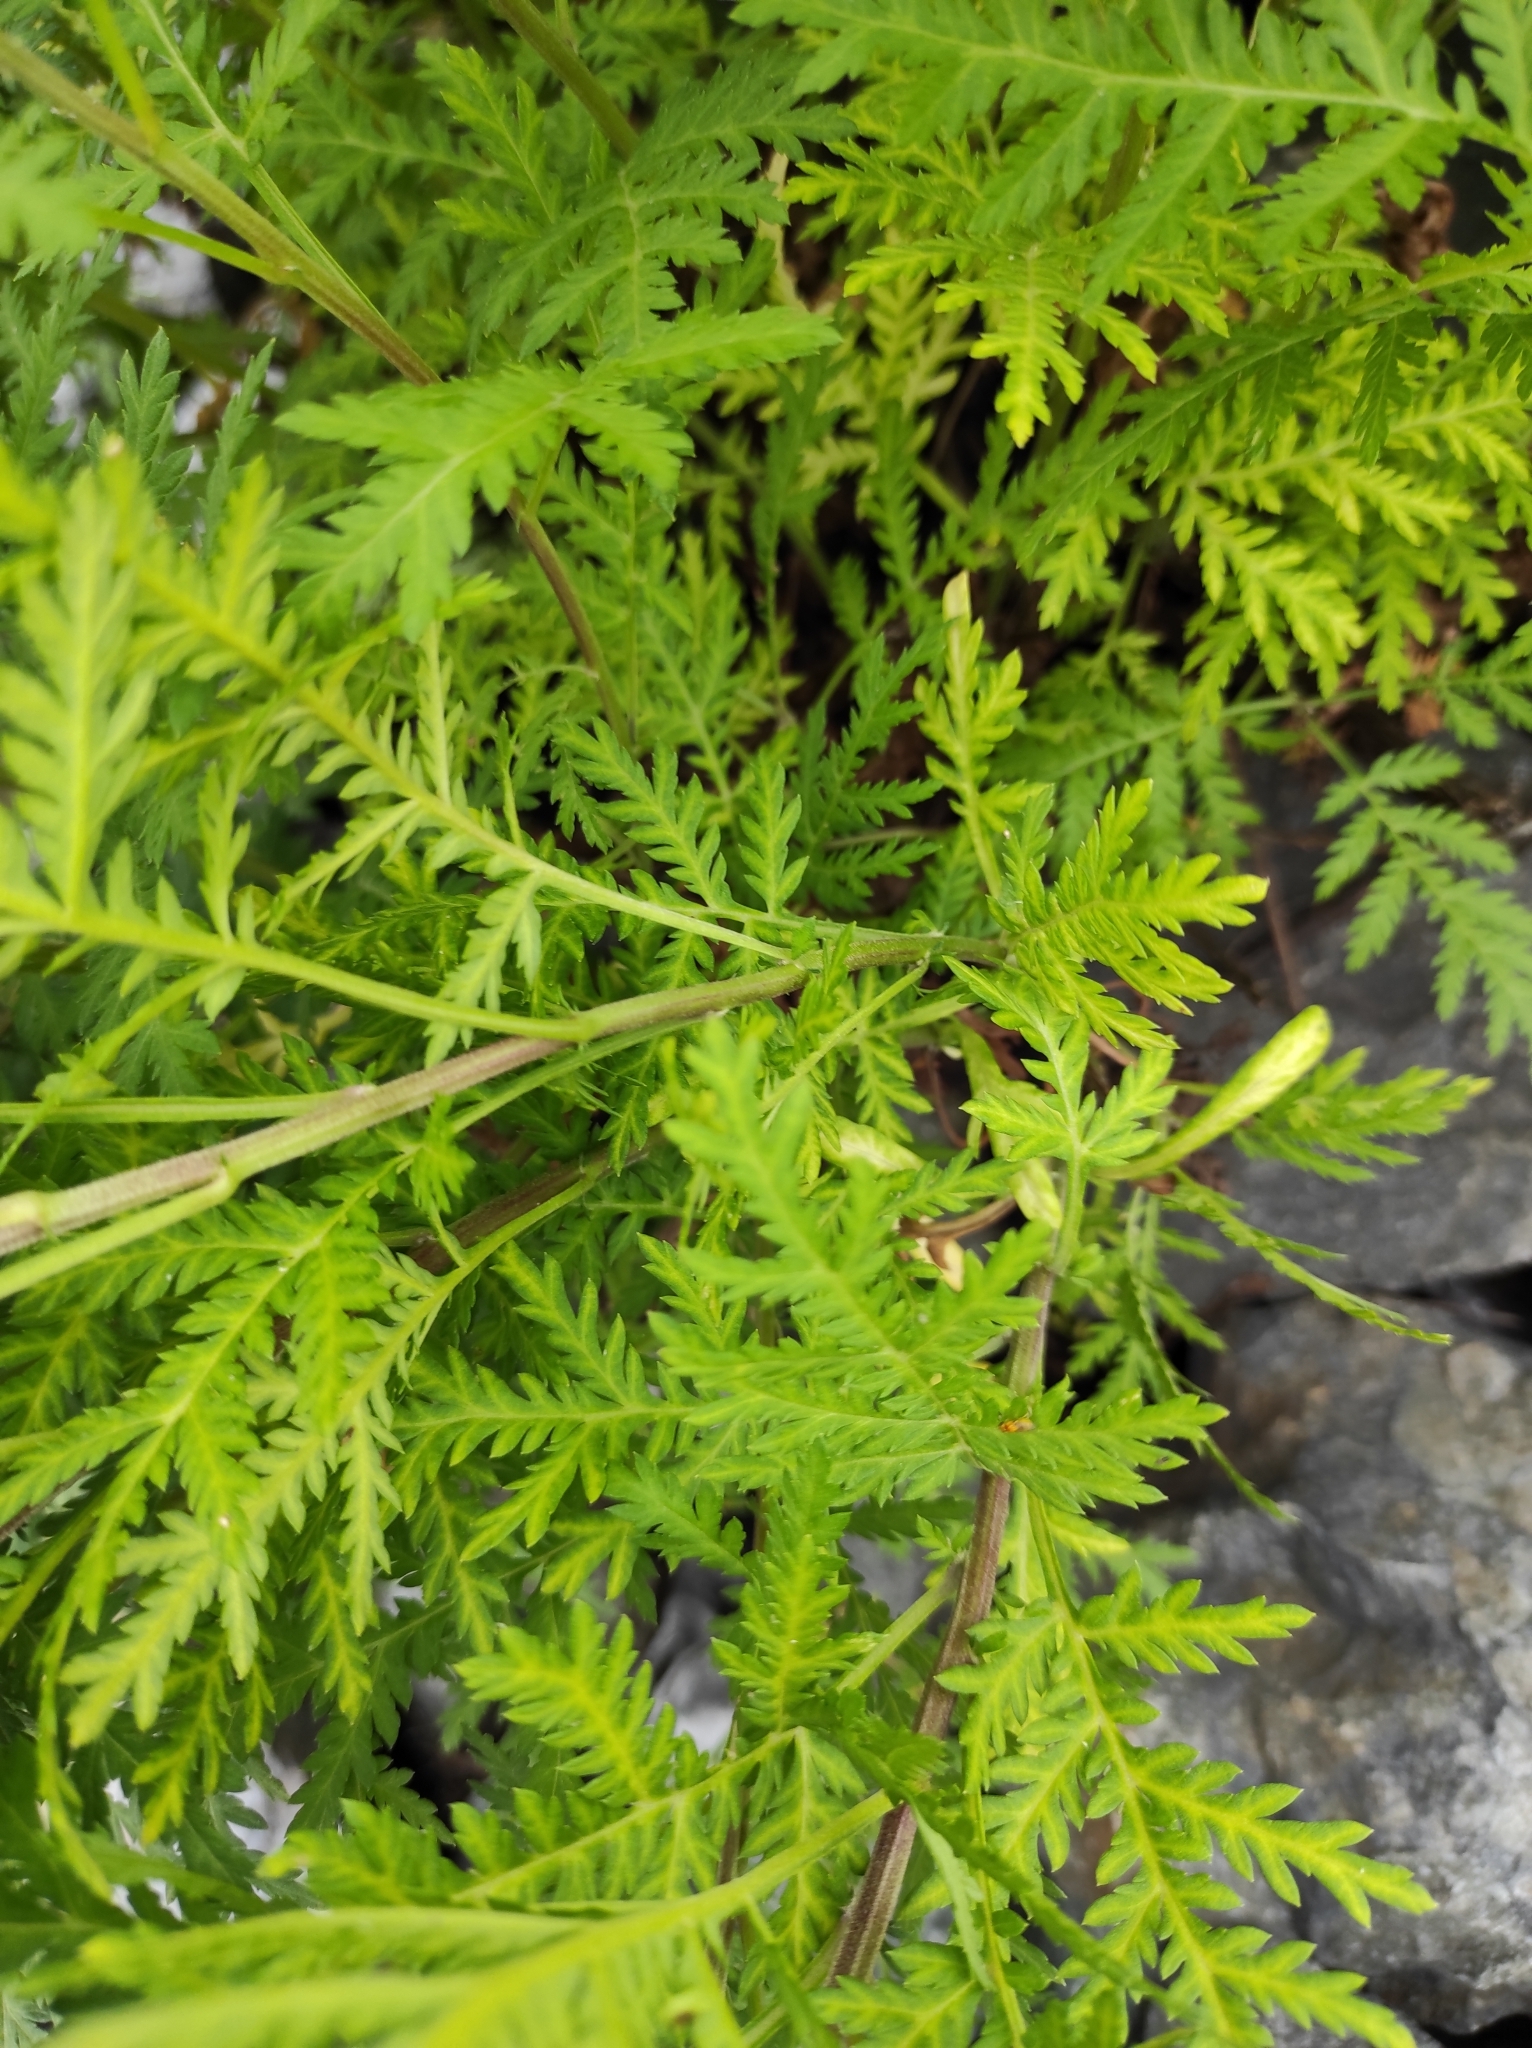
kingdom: Plantae
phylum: Tracheophyta
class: Magnoliopsida
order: Asterales
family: Asteraceae
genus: Artemisia
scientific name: Artemisia gmelinii
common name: Gmelin's wormwood
